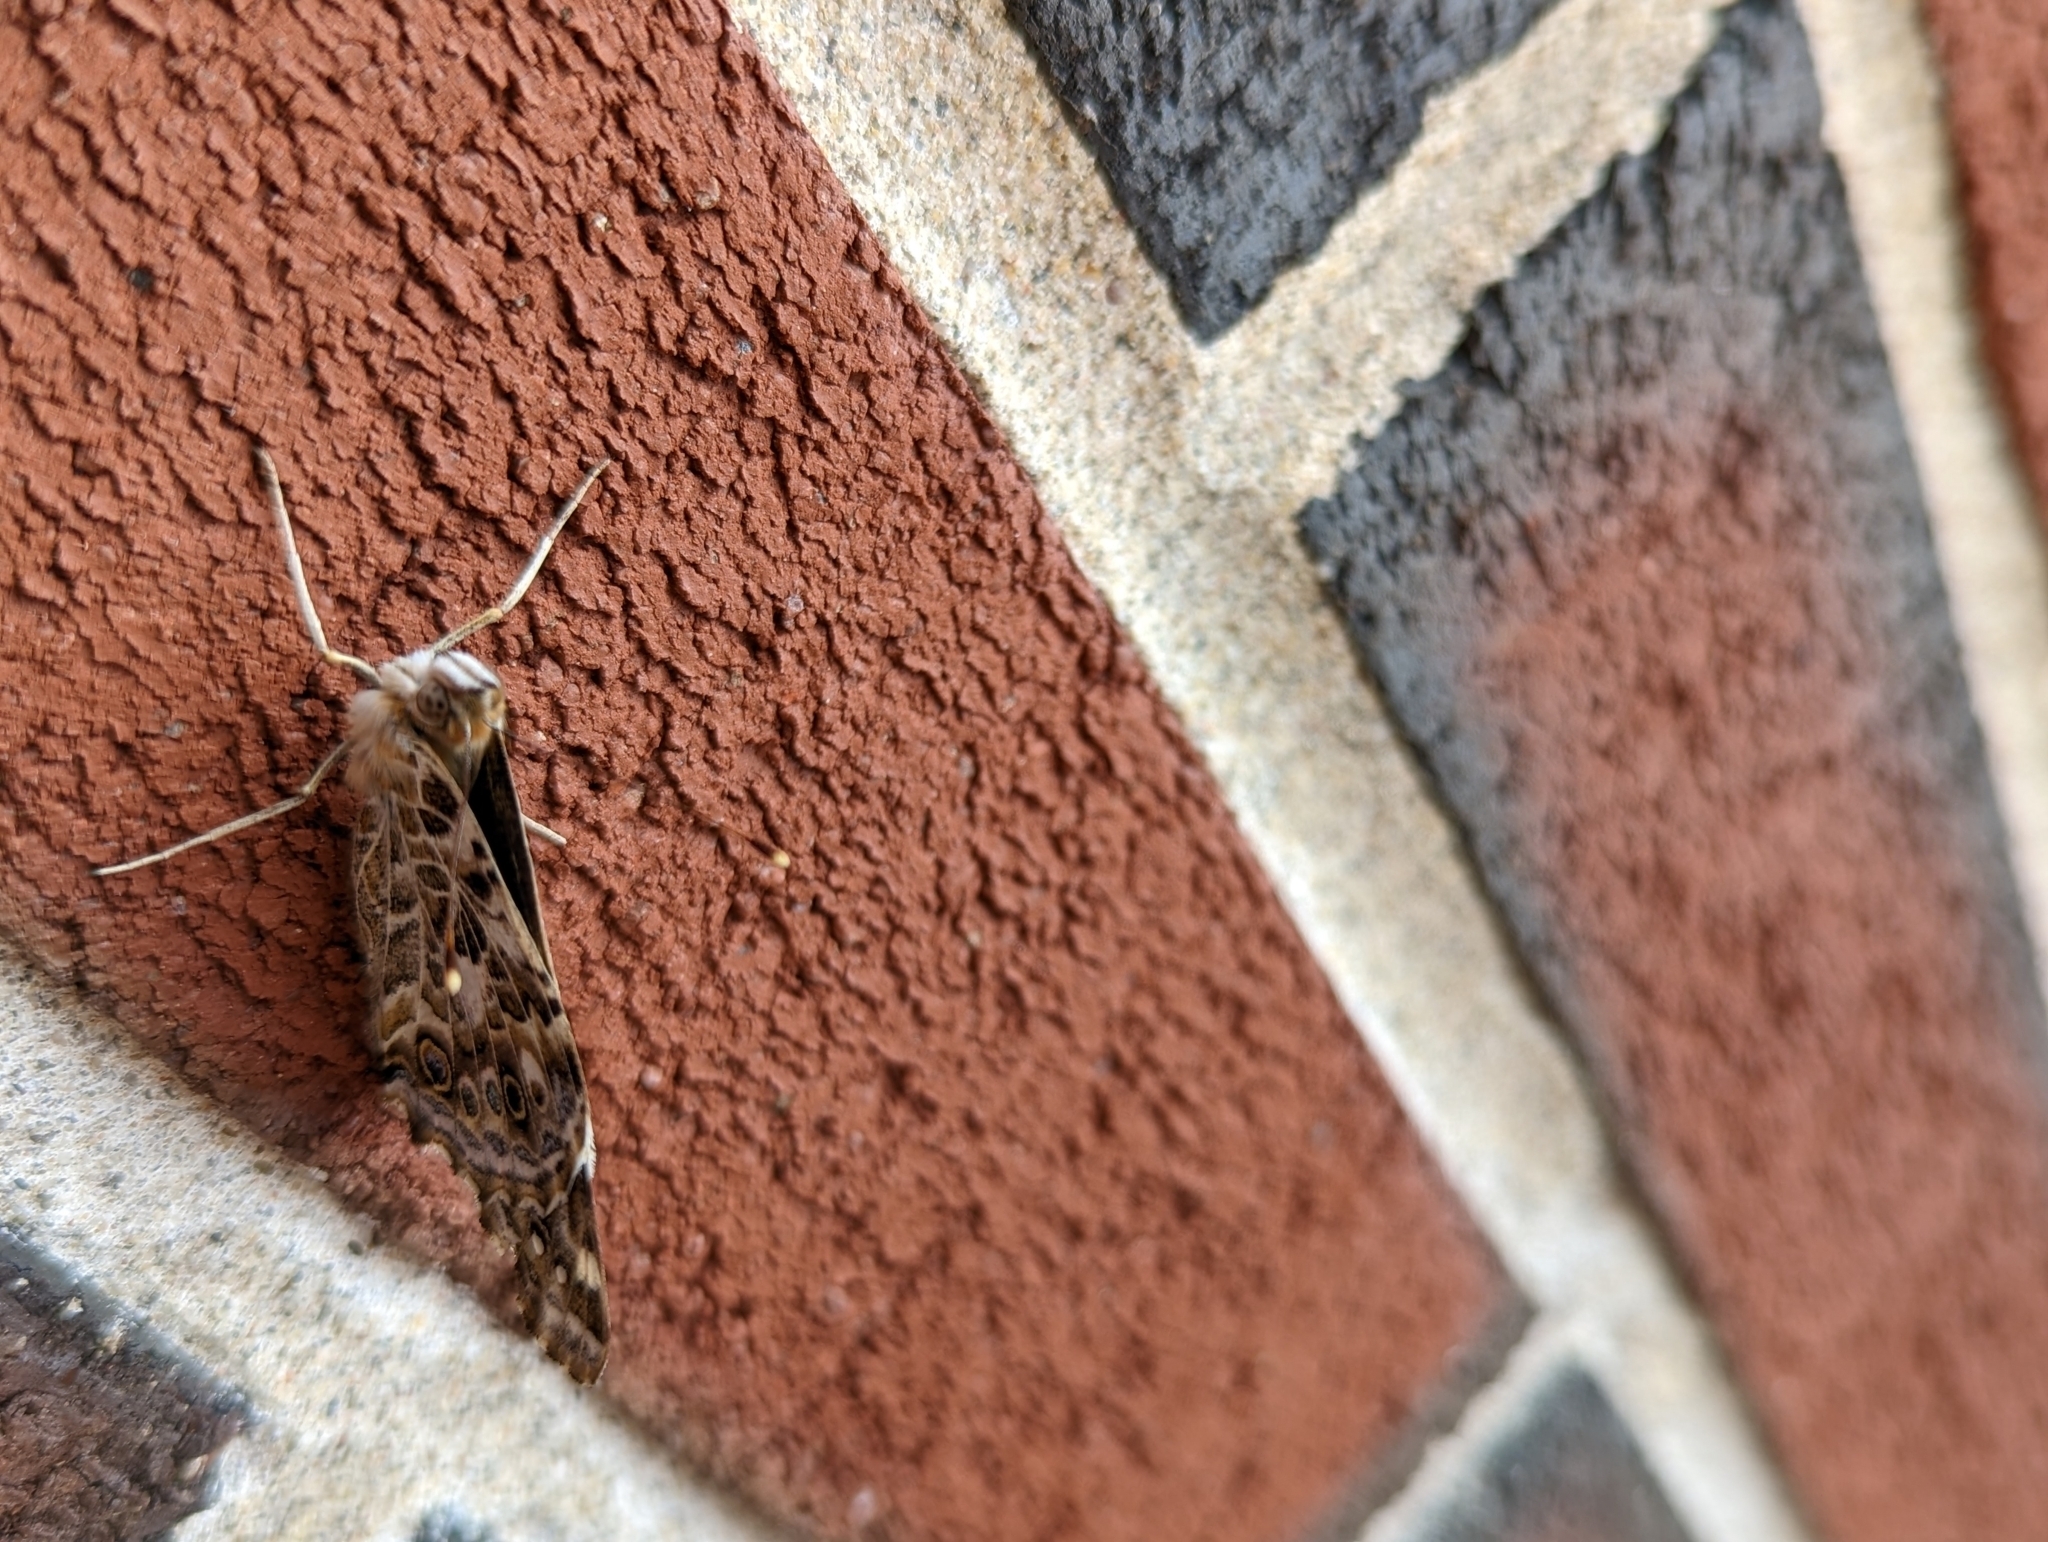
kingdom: Animalia
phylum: Arthropoda
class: Insecta
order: Lepidoptera
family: Nymphalidae
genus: Vanessa
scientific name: Vanessa cardui
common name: Painted lady
